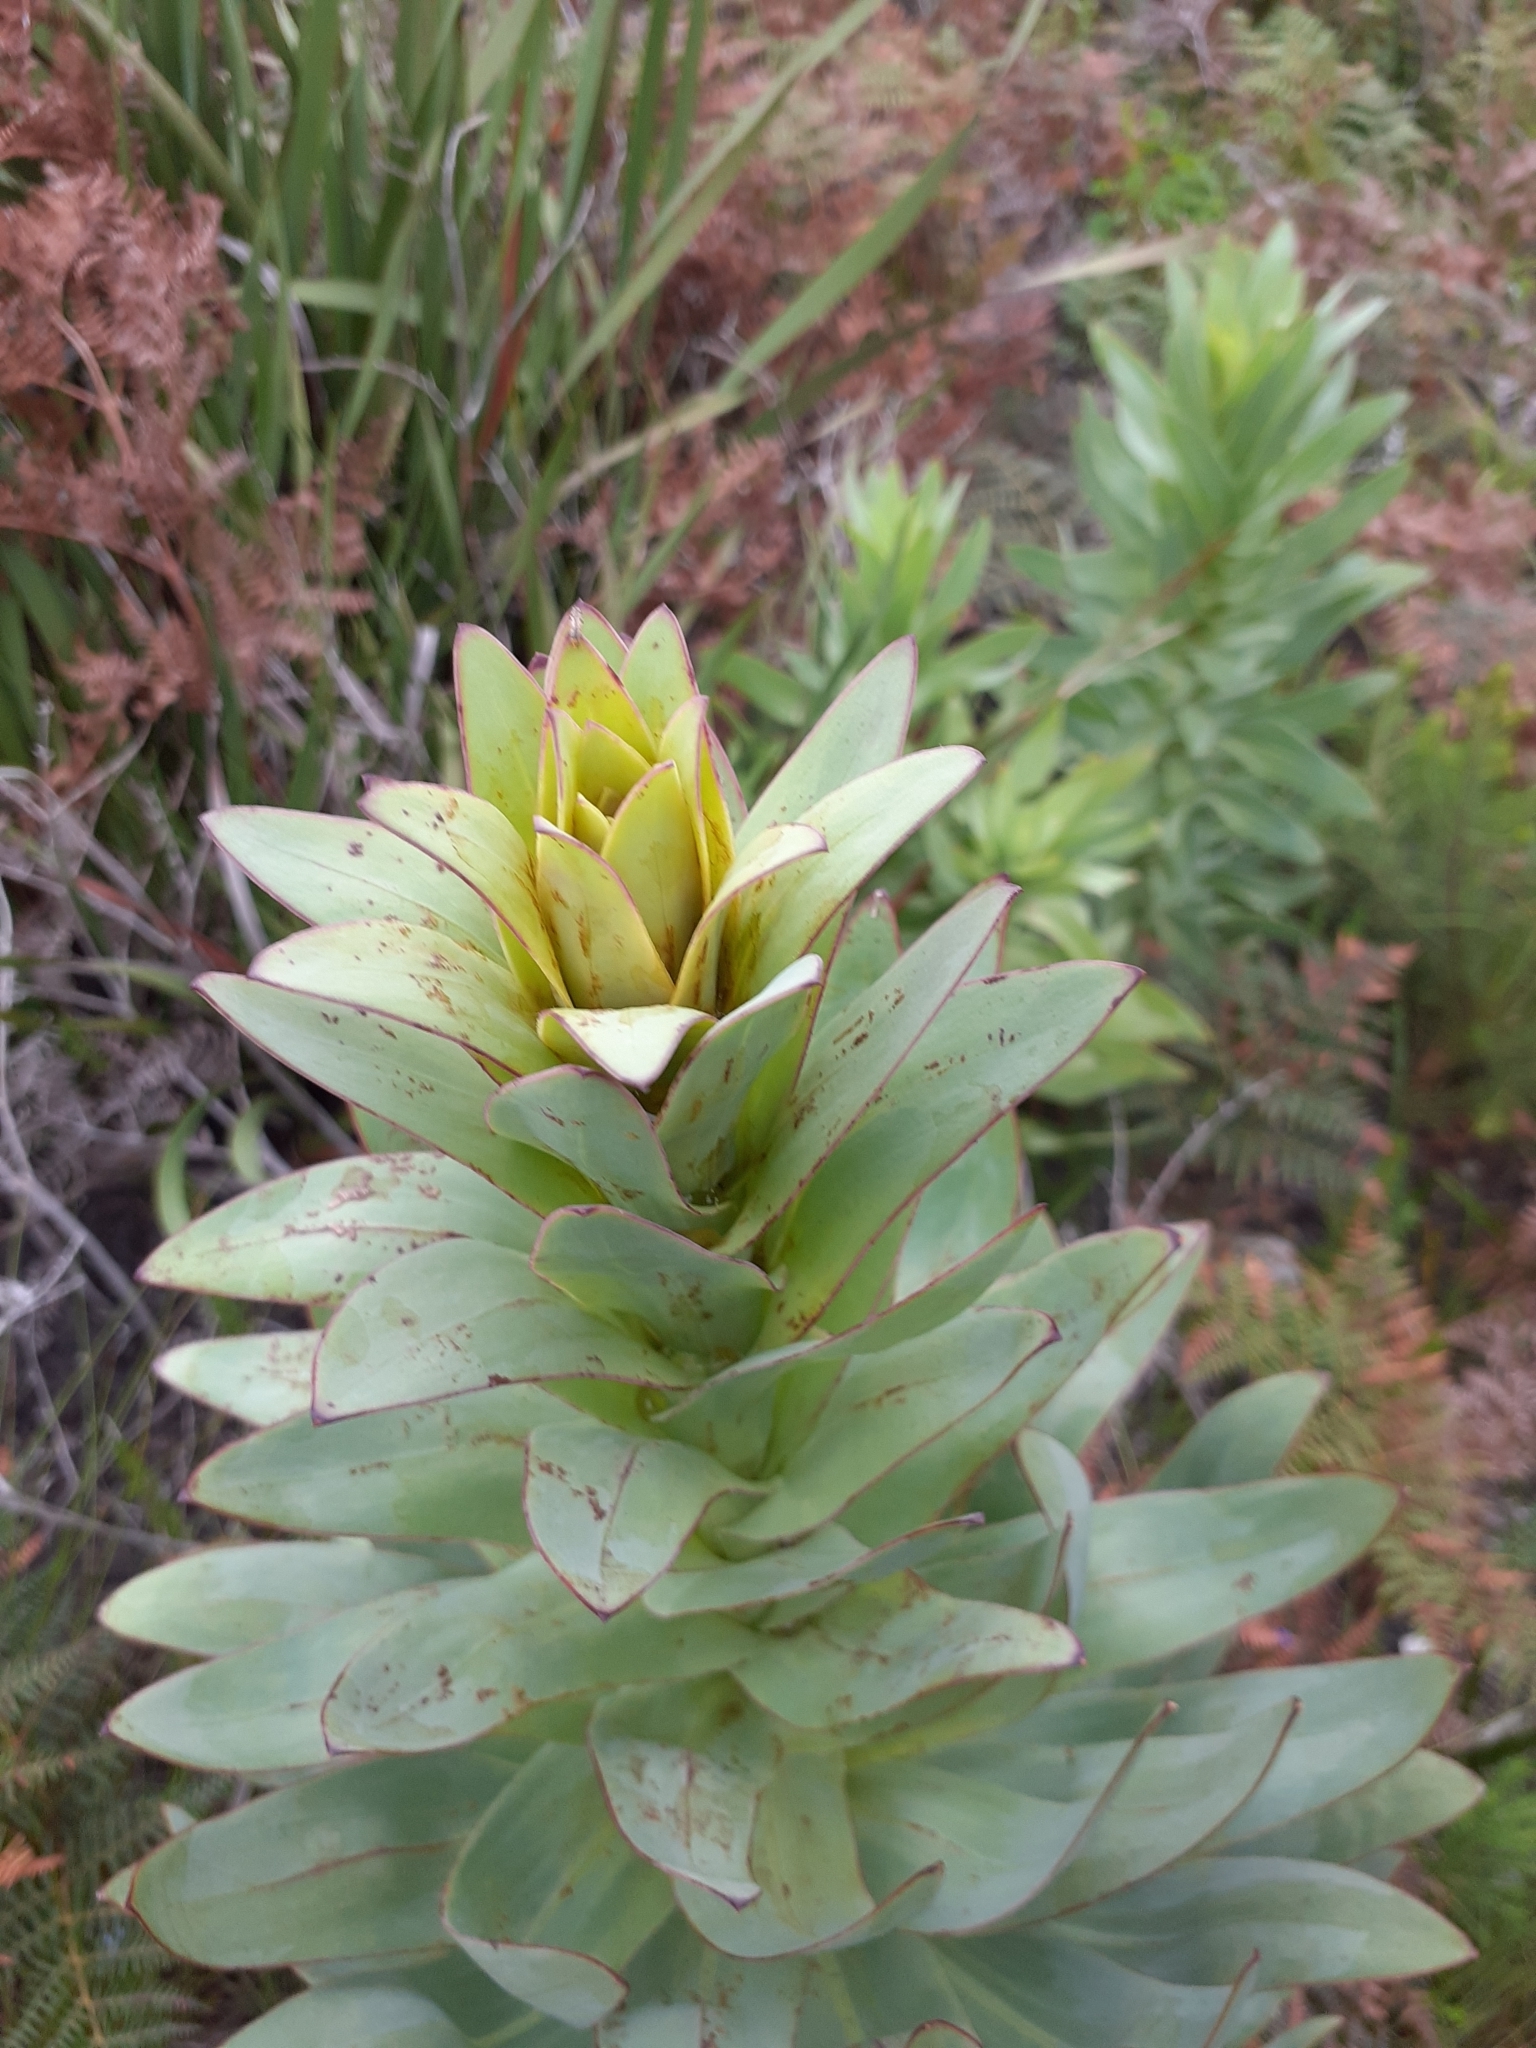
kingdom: Plantae
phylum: Tracheophyta
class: Magnoliopsida
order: Asterales
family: Asteraceae
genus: Osteospermum
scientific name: Osteospermum corymbosum
